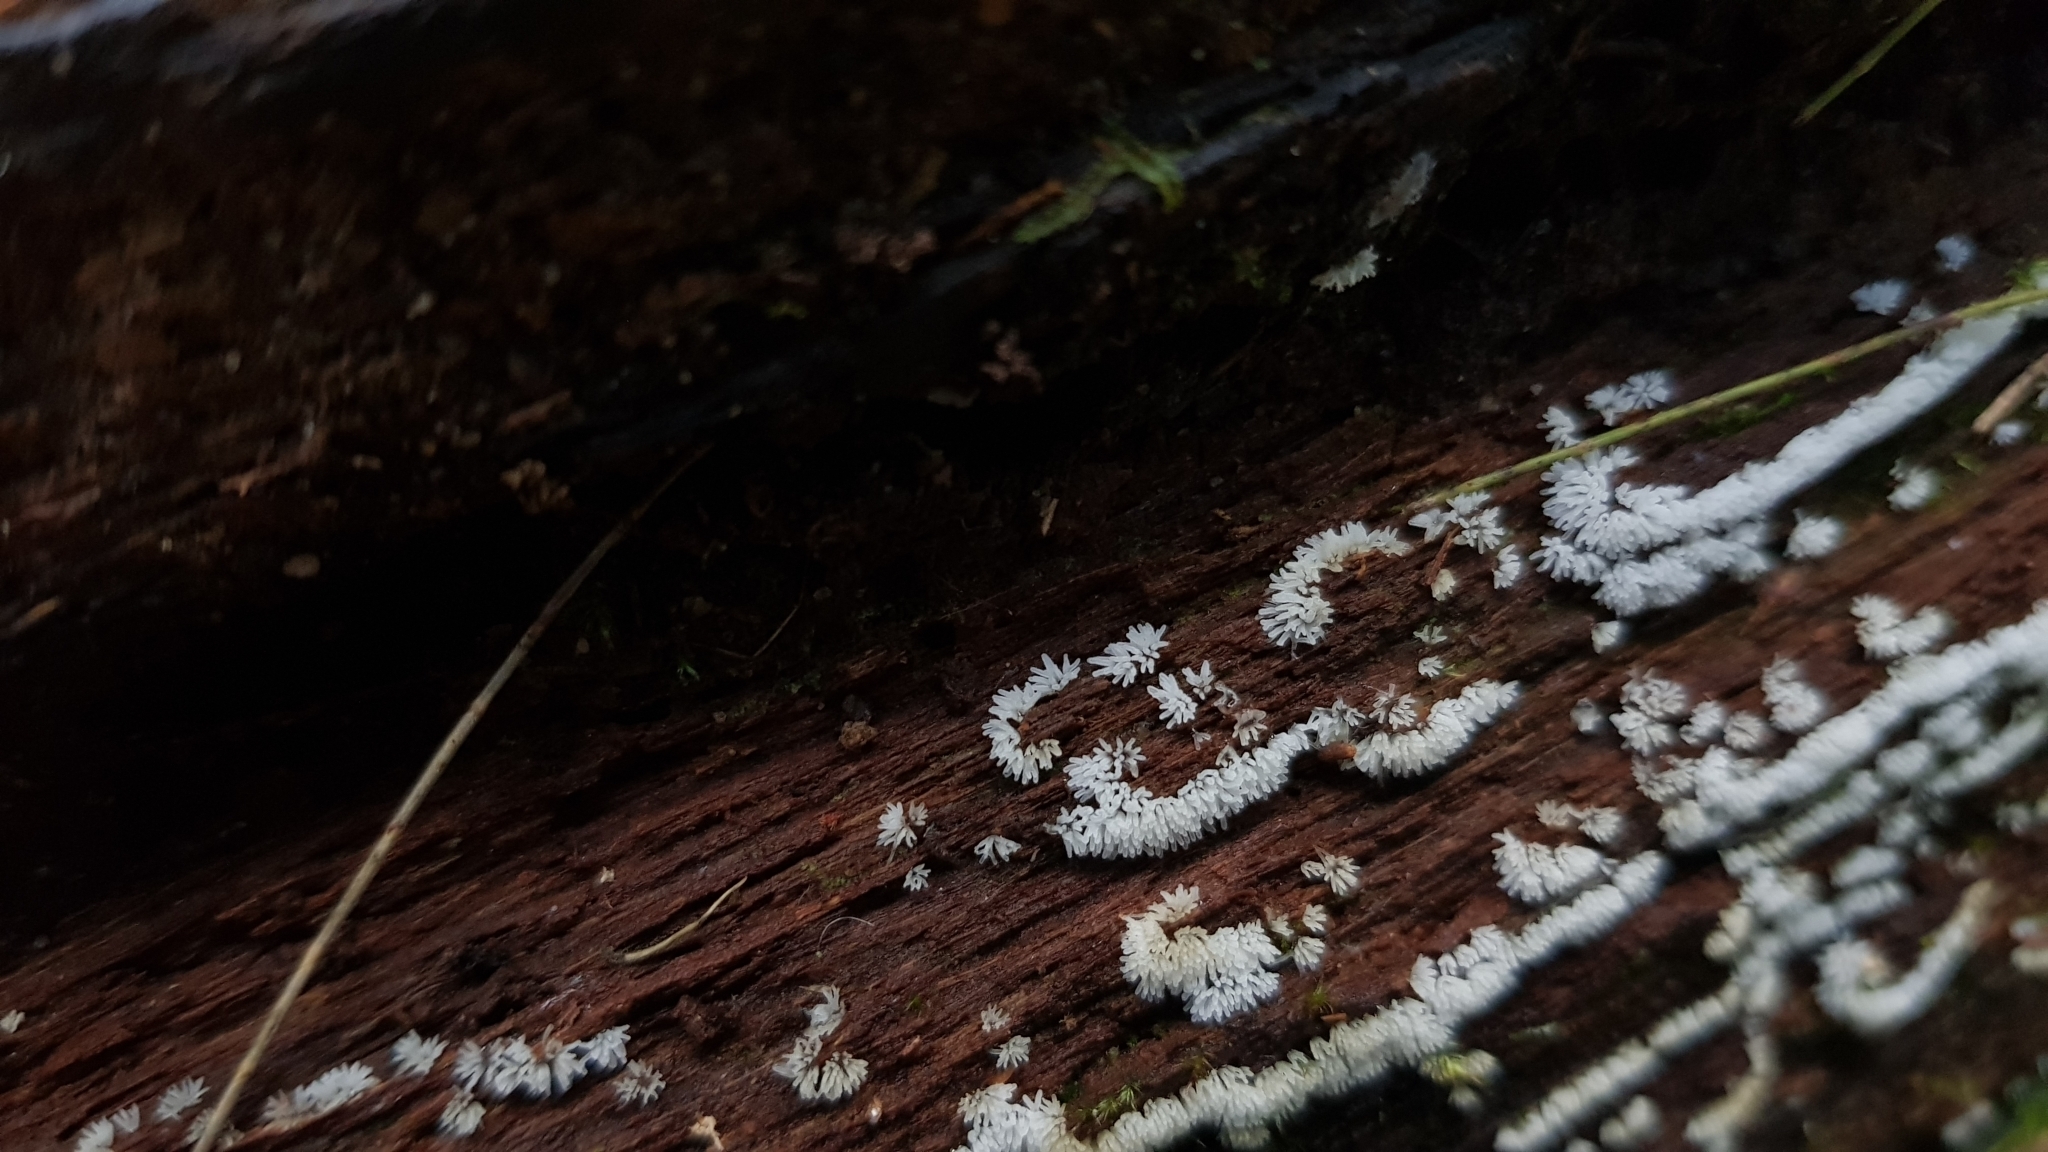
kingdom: Protozoa
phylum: Mycetozoa
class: Protosteliomycetes
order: Ceratiomyxales
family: Ceratiomyxaceae
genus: Ceratiomyxa
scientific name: Ceratiomyxa fruticulosa
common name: Honeycomb coral slime mold
